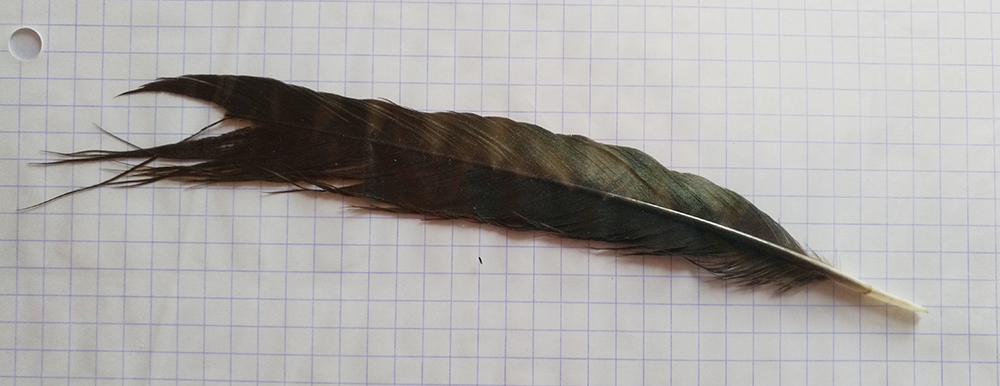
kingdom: Animalia
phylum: Chordata
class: Aves
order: Passeriformes
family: Corvidae
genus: Pica
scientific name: Pica pica
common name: Eurasian magpie
